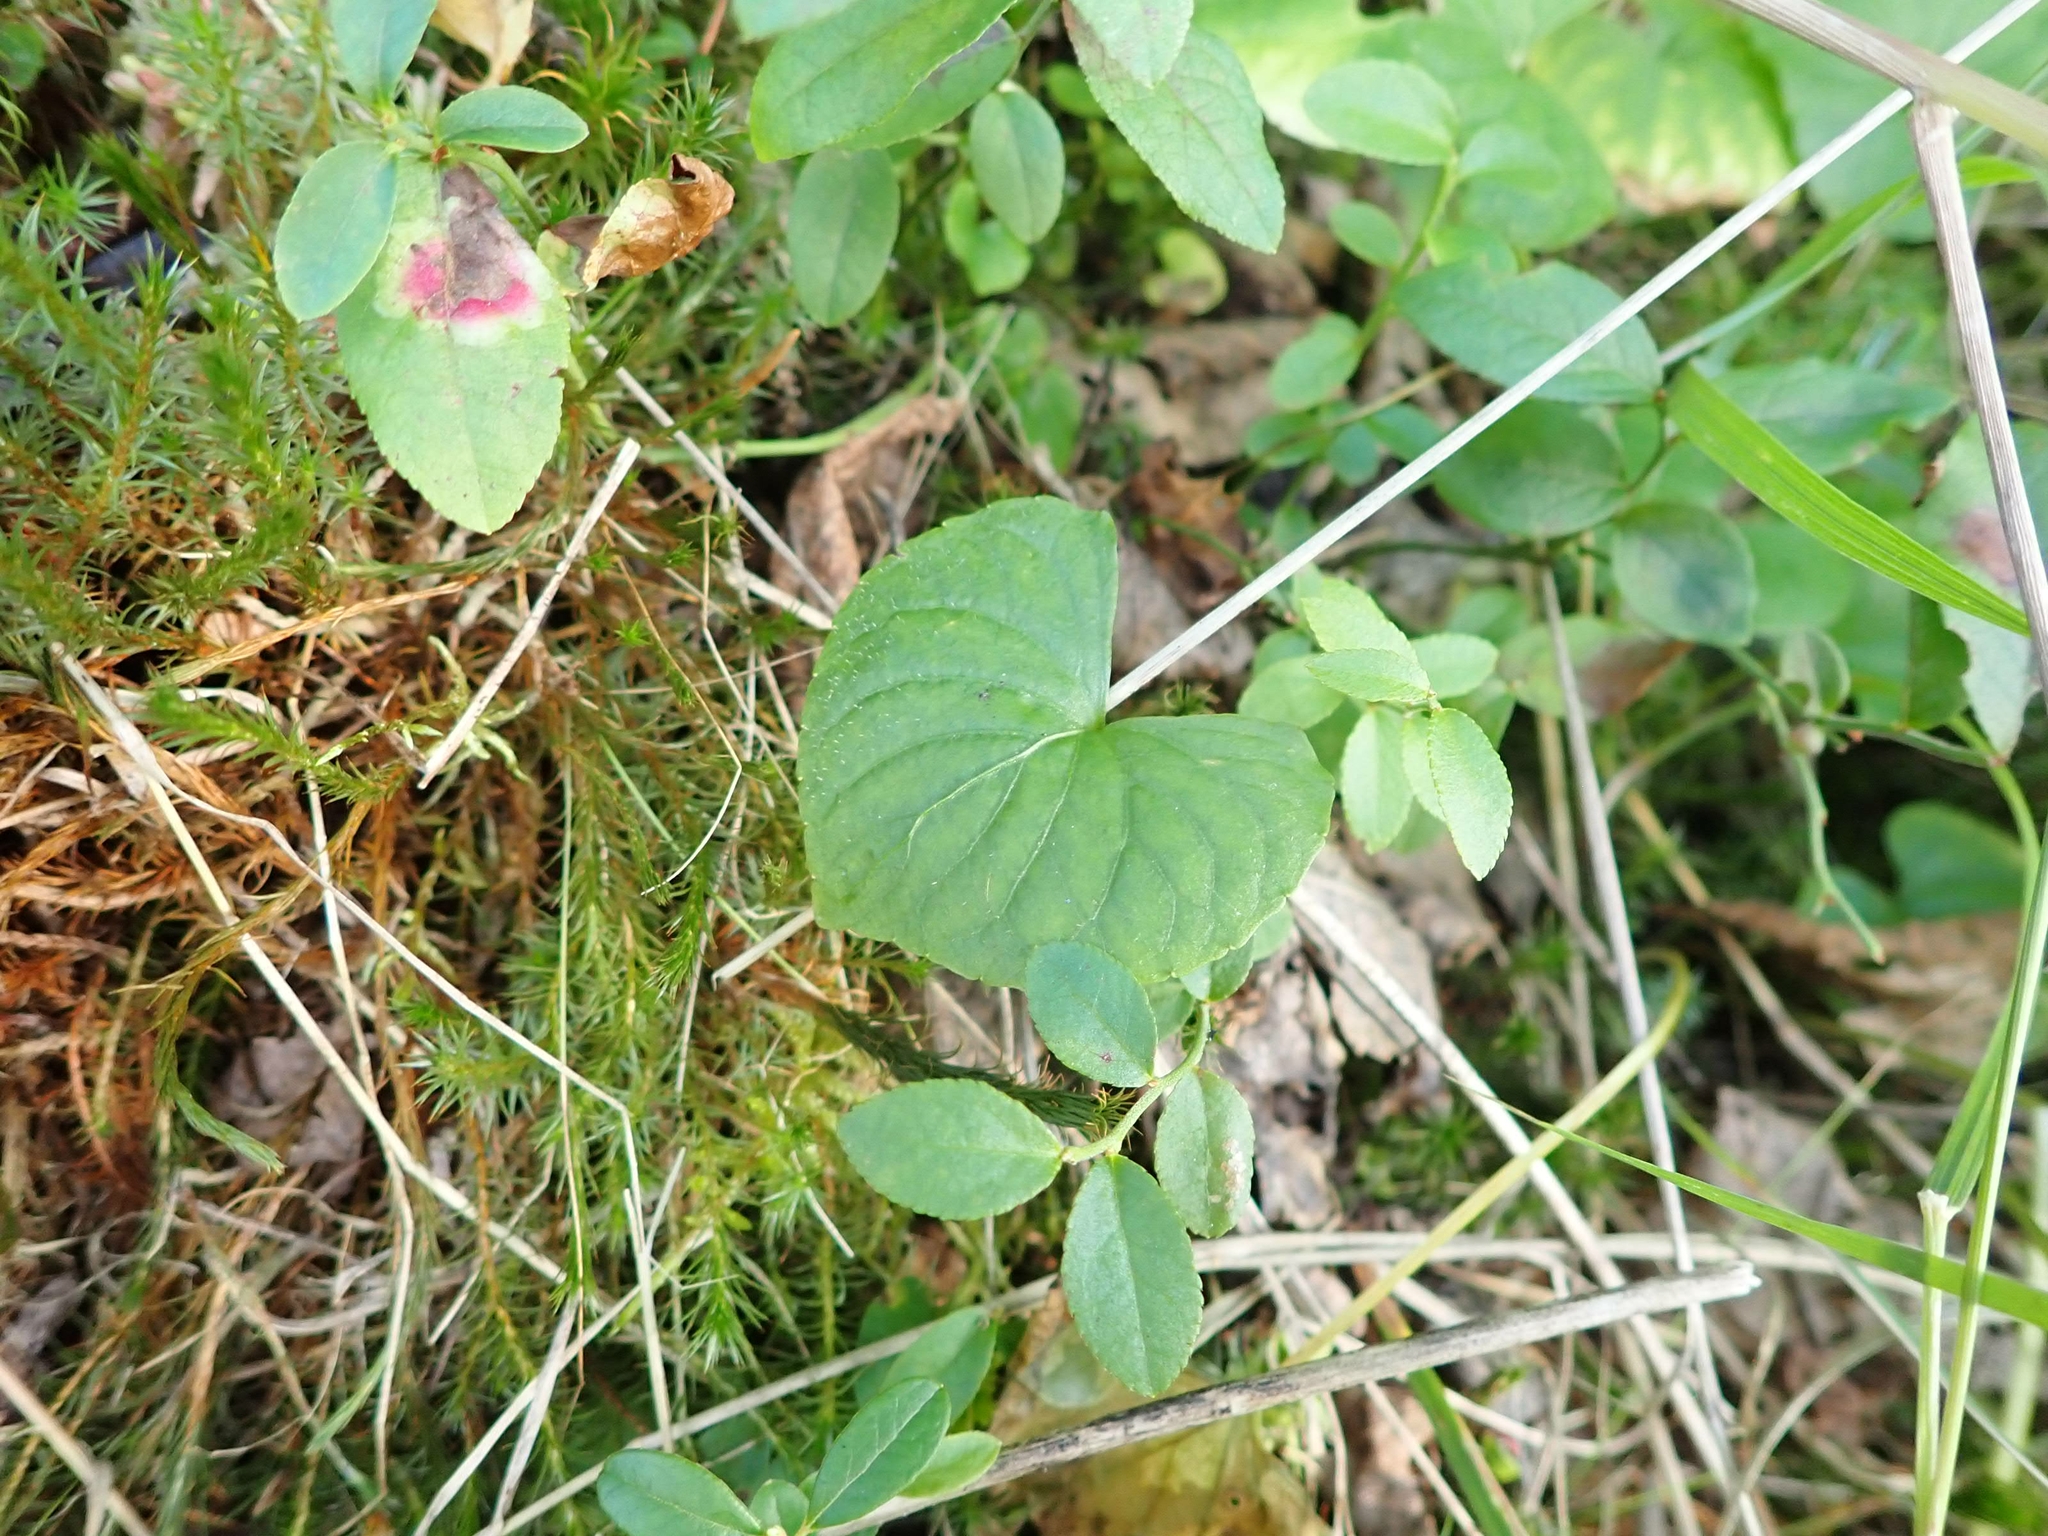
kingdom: Plantae
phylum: Tracheophyta
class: Magnoliopsida
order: Malpighiales
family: Violaceae
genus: Viola
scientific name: Viola renifolia
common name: Kidney-leaf violet
